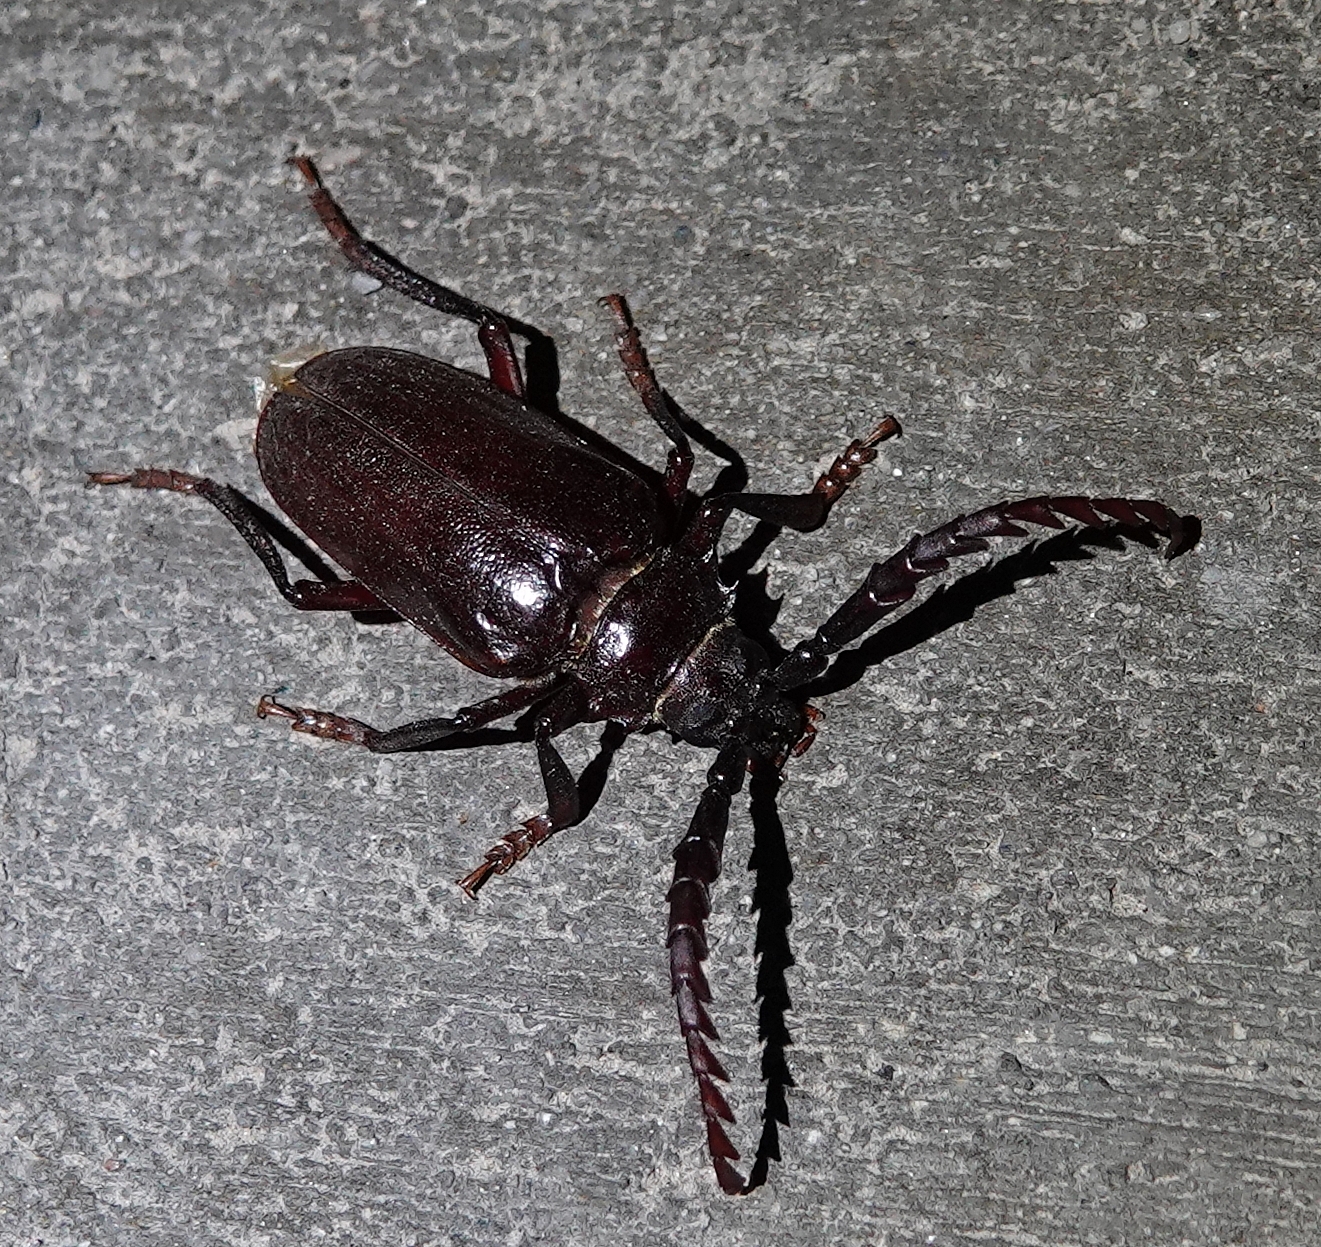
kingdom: Animalia
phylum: Arthropoda
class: Insecta
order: Coleoptera
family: Cerambycidae
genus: Prionus
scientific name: Prionus californicus
